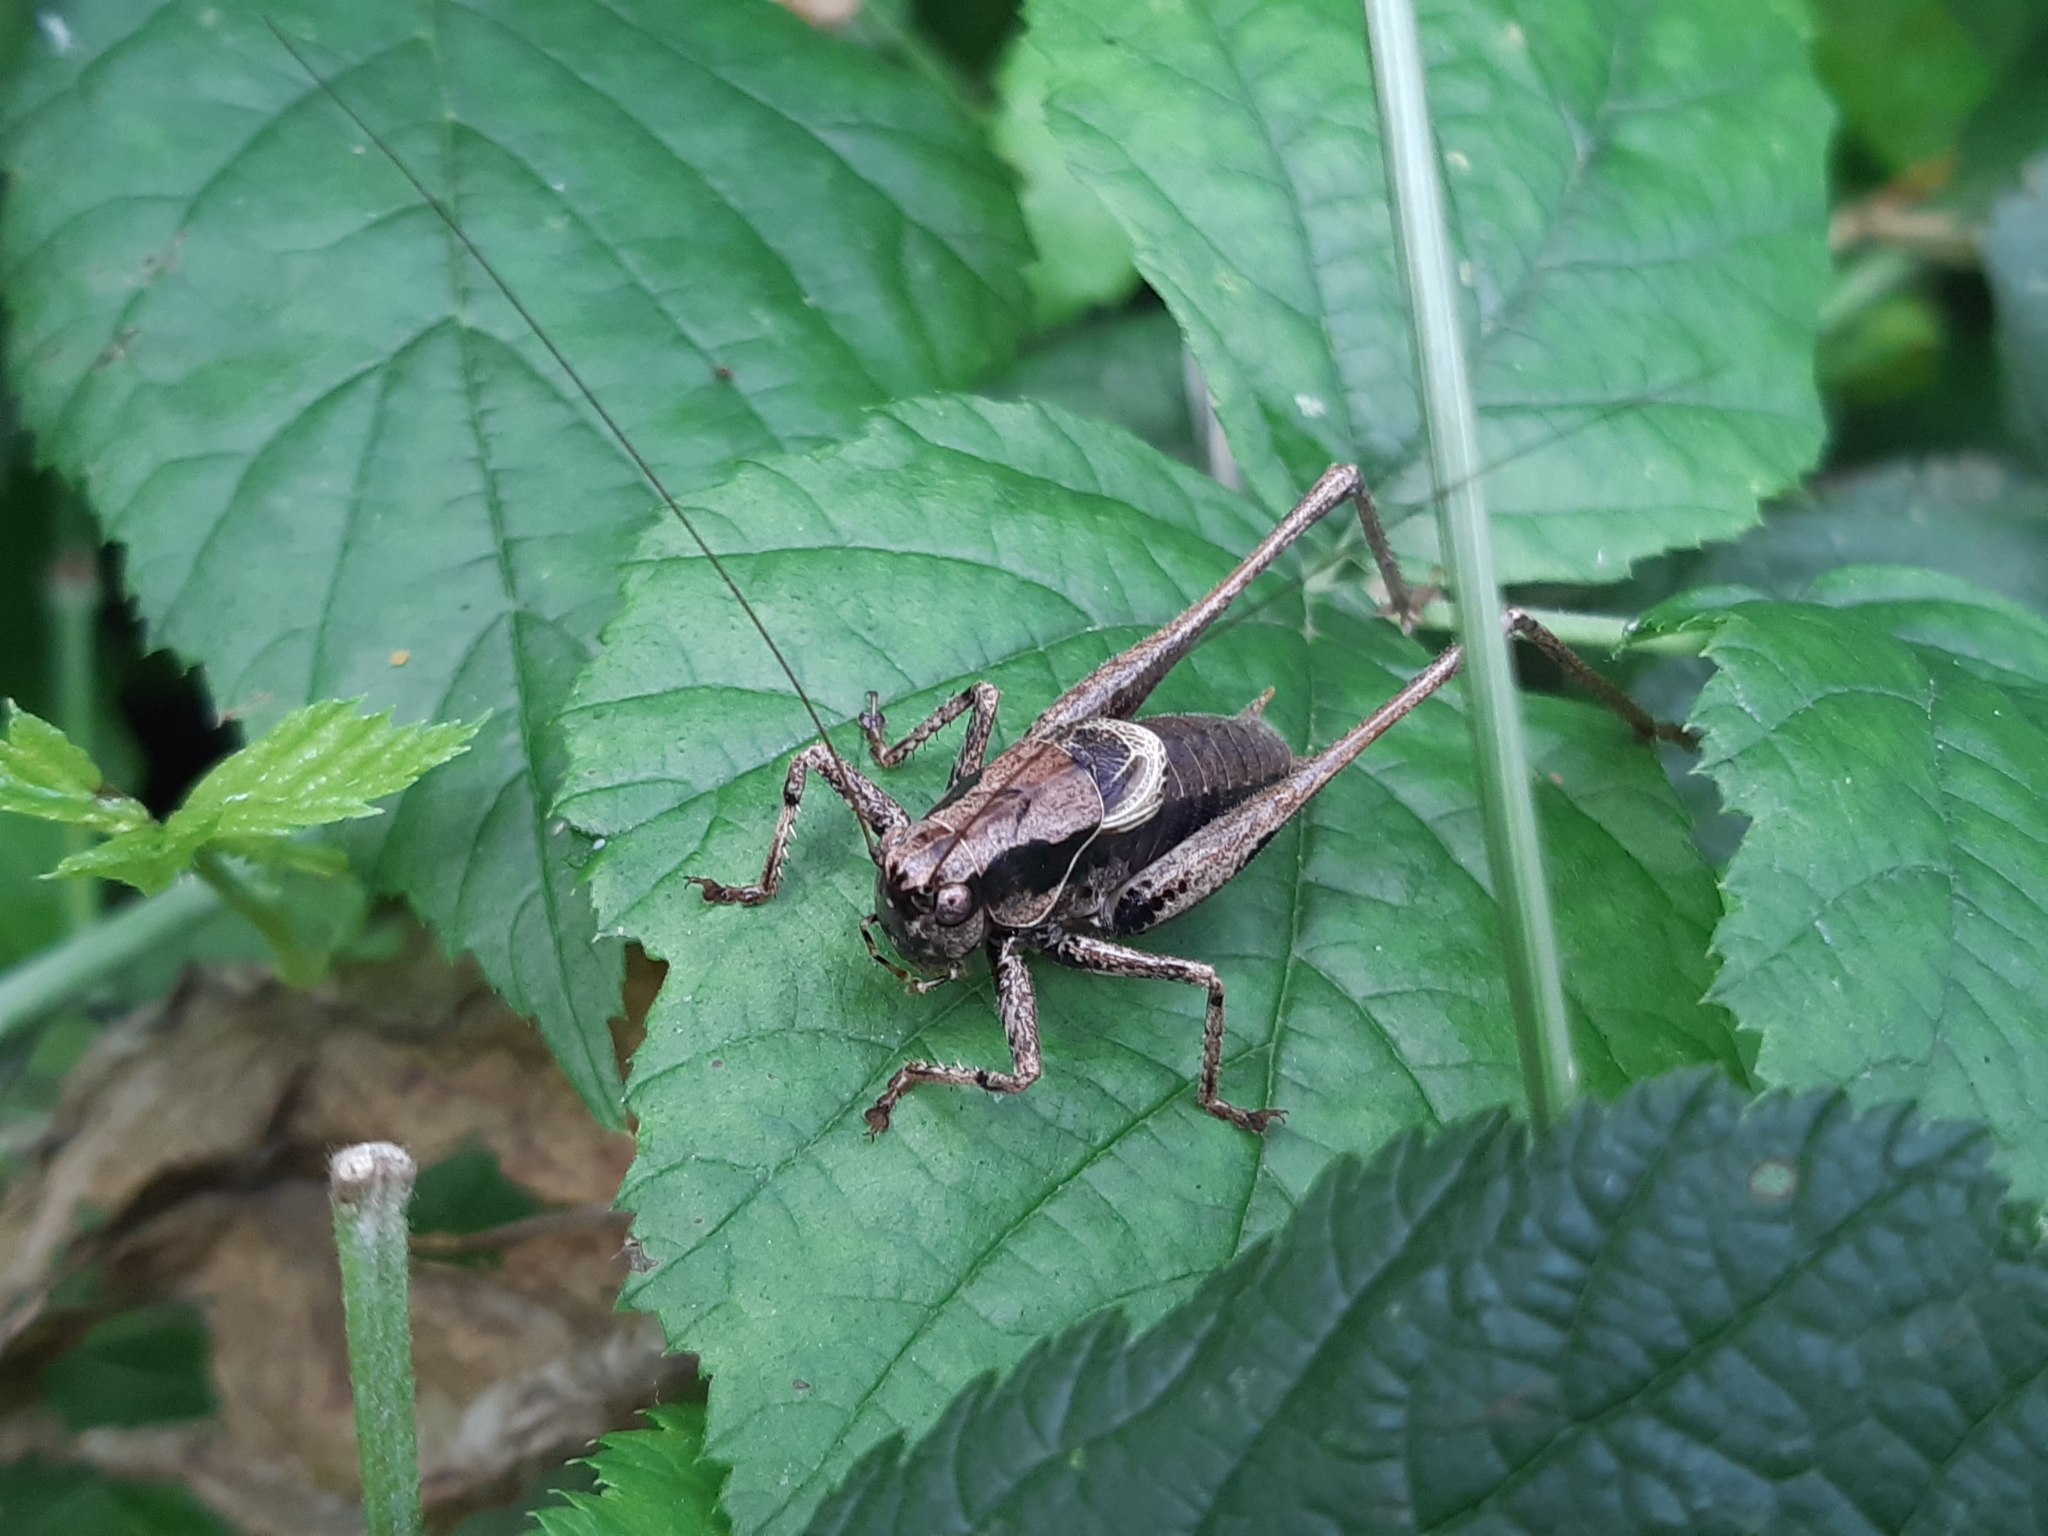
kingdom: Animalia
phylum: Arthropoda
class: Insecta
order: Orthoptera
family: Tettigoniidae
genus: Pholidoptera
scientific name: Pholidoptera griseoaptera
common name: Dark bush-cricket
